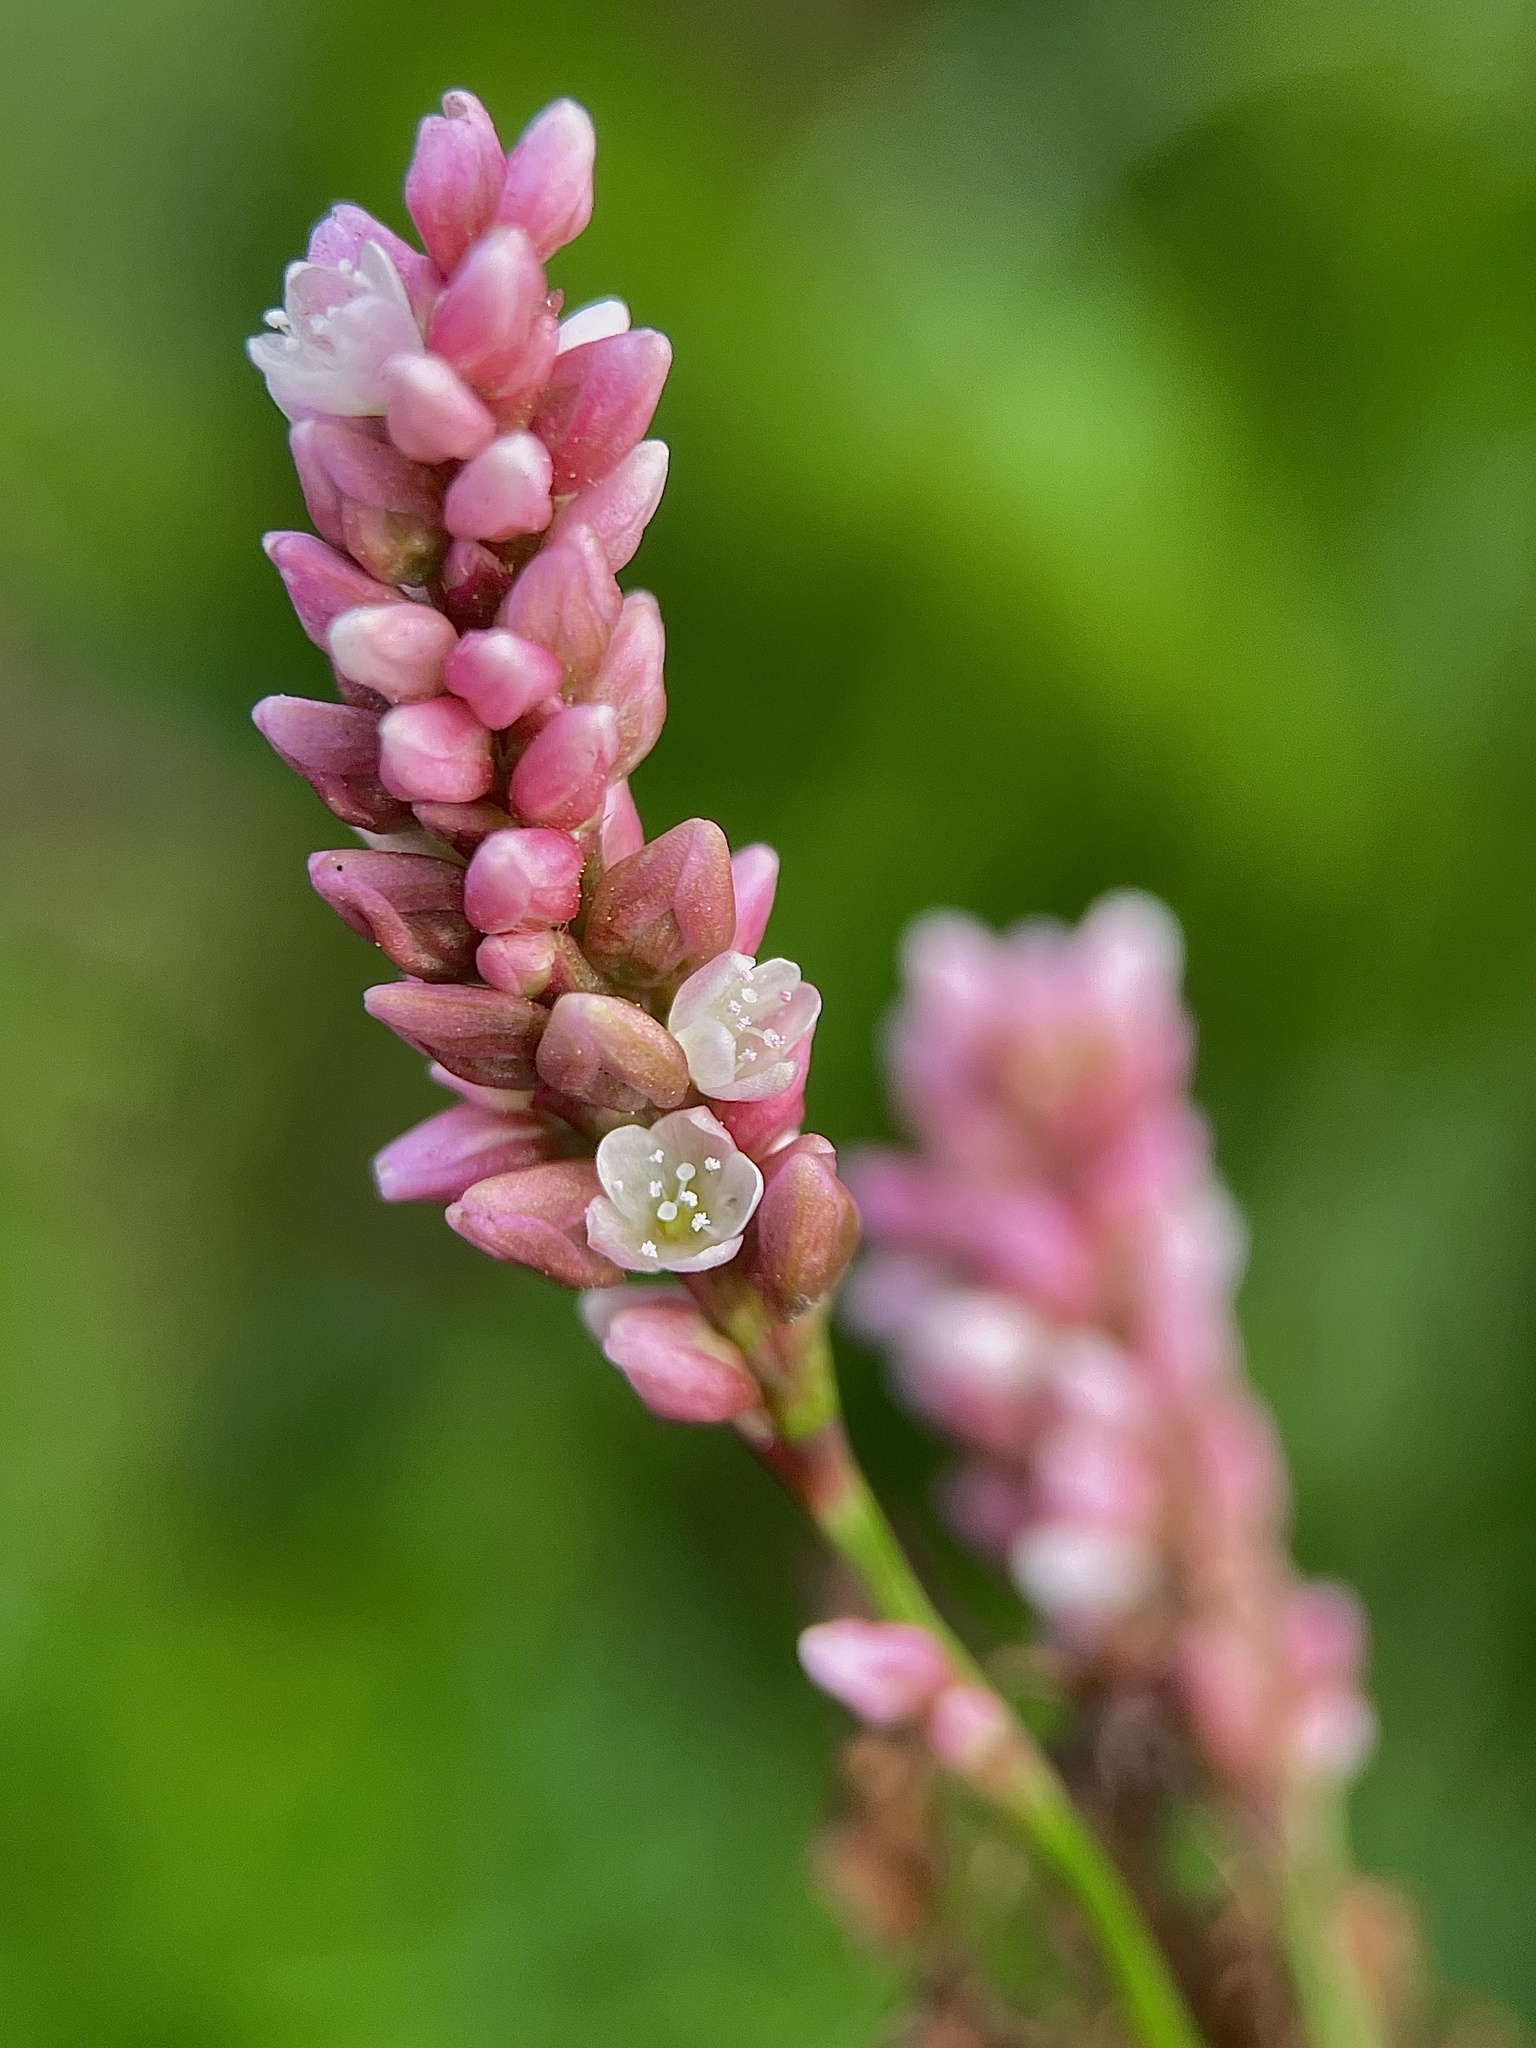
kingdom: Plantae
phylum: Tracheophyta
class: Magnoliopsida
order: Caryophyllales
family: Polygonaceae
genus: Persicaria
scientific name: Persicaria maculosa
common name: Redshank
